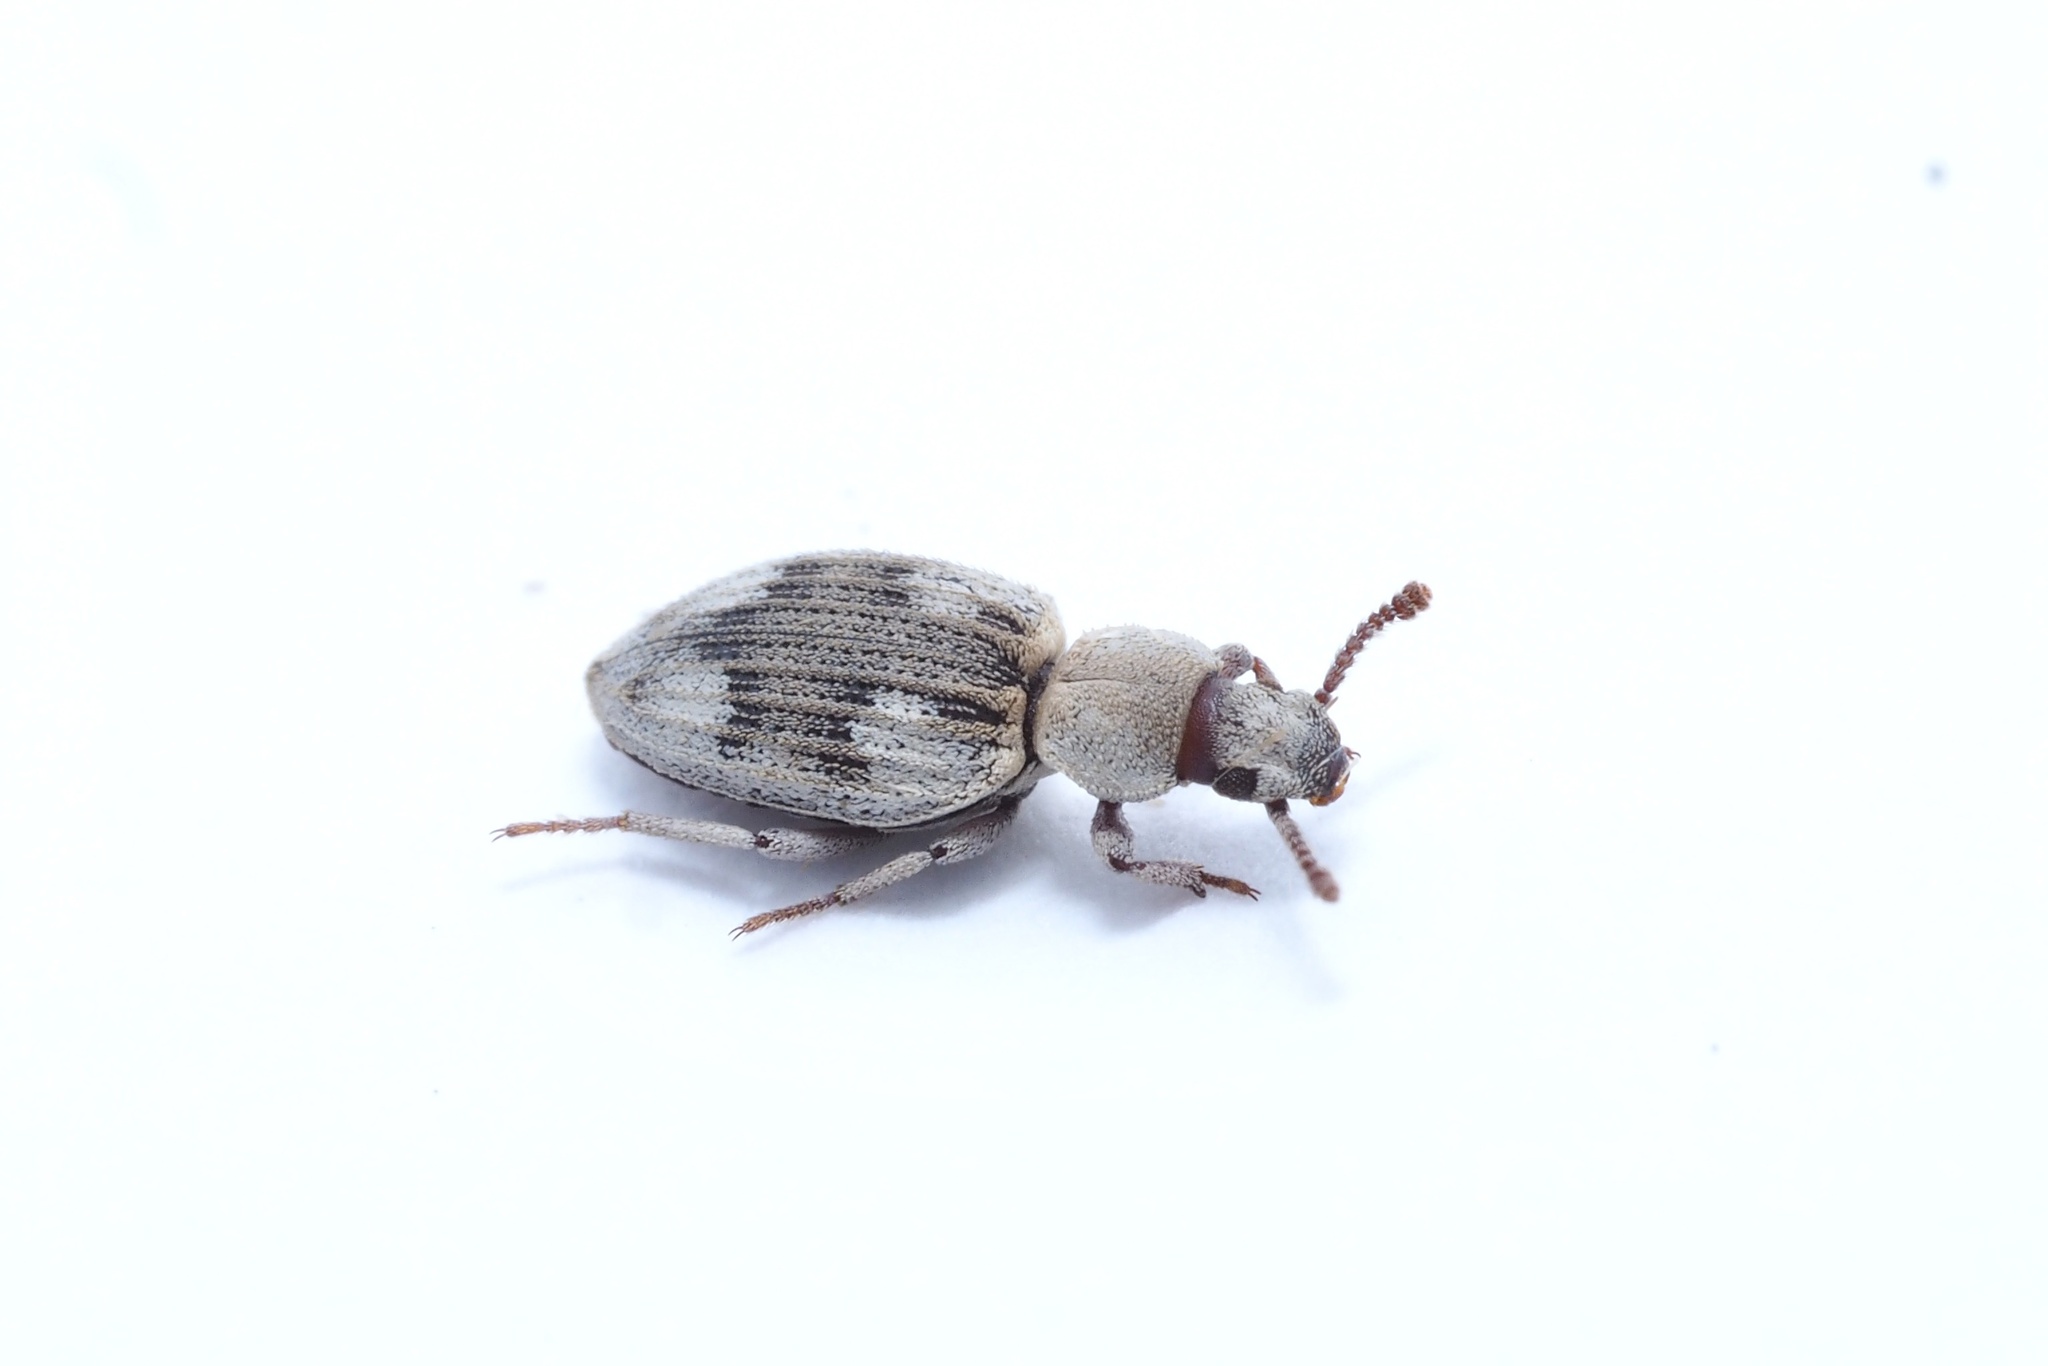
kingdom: Animalia
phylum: Arthropoda
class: Insecta
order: Coleoptera
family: Tenebrionidae
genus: Idisia
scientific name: Idisia
